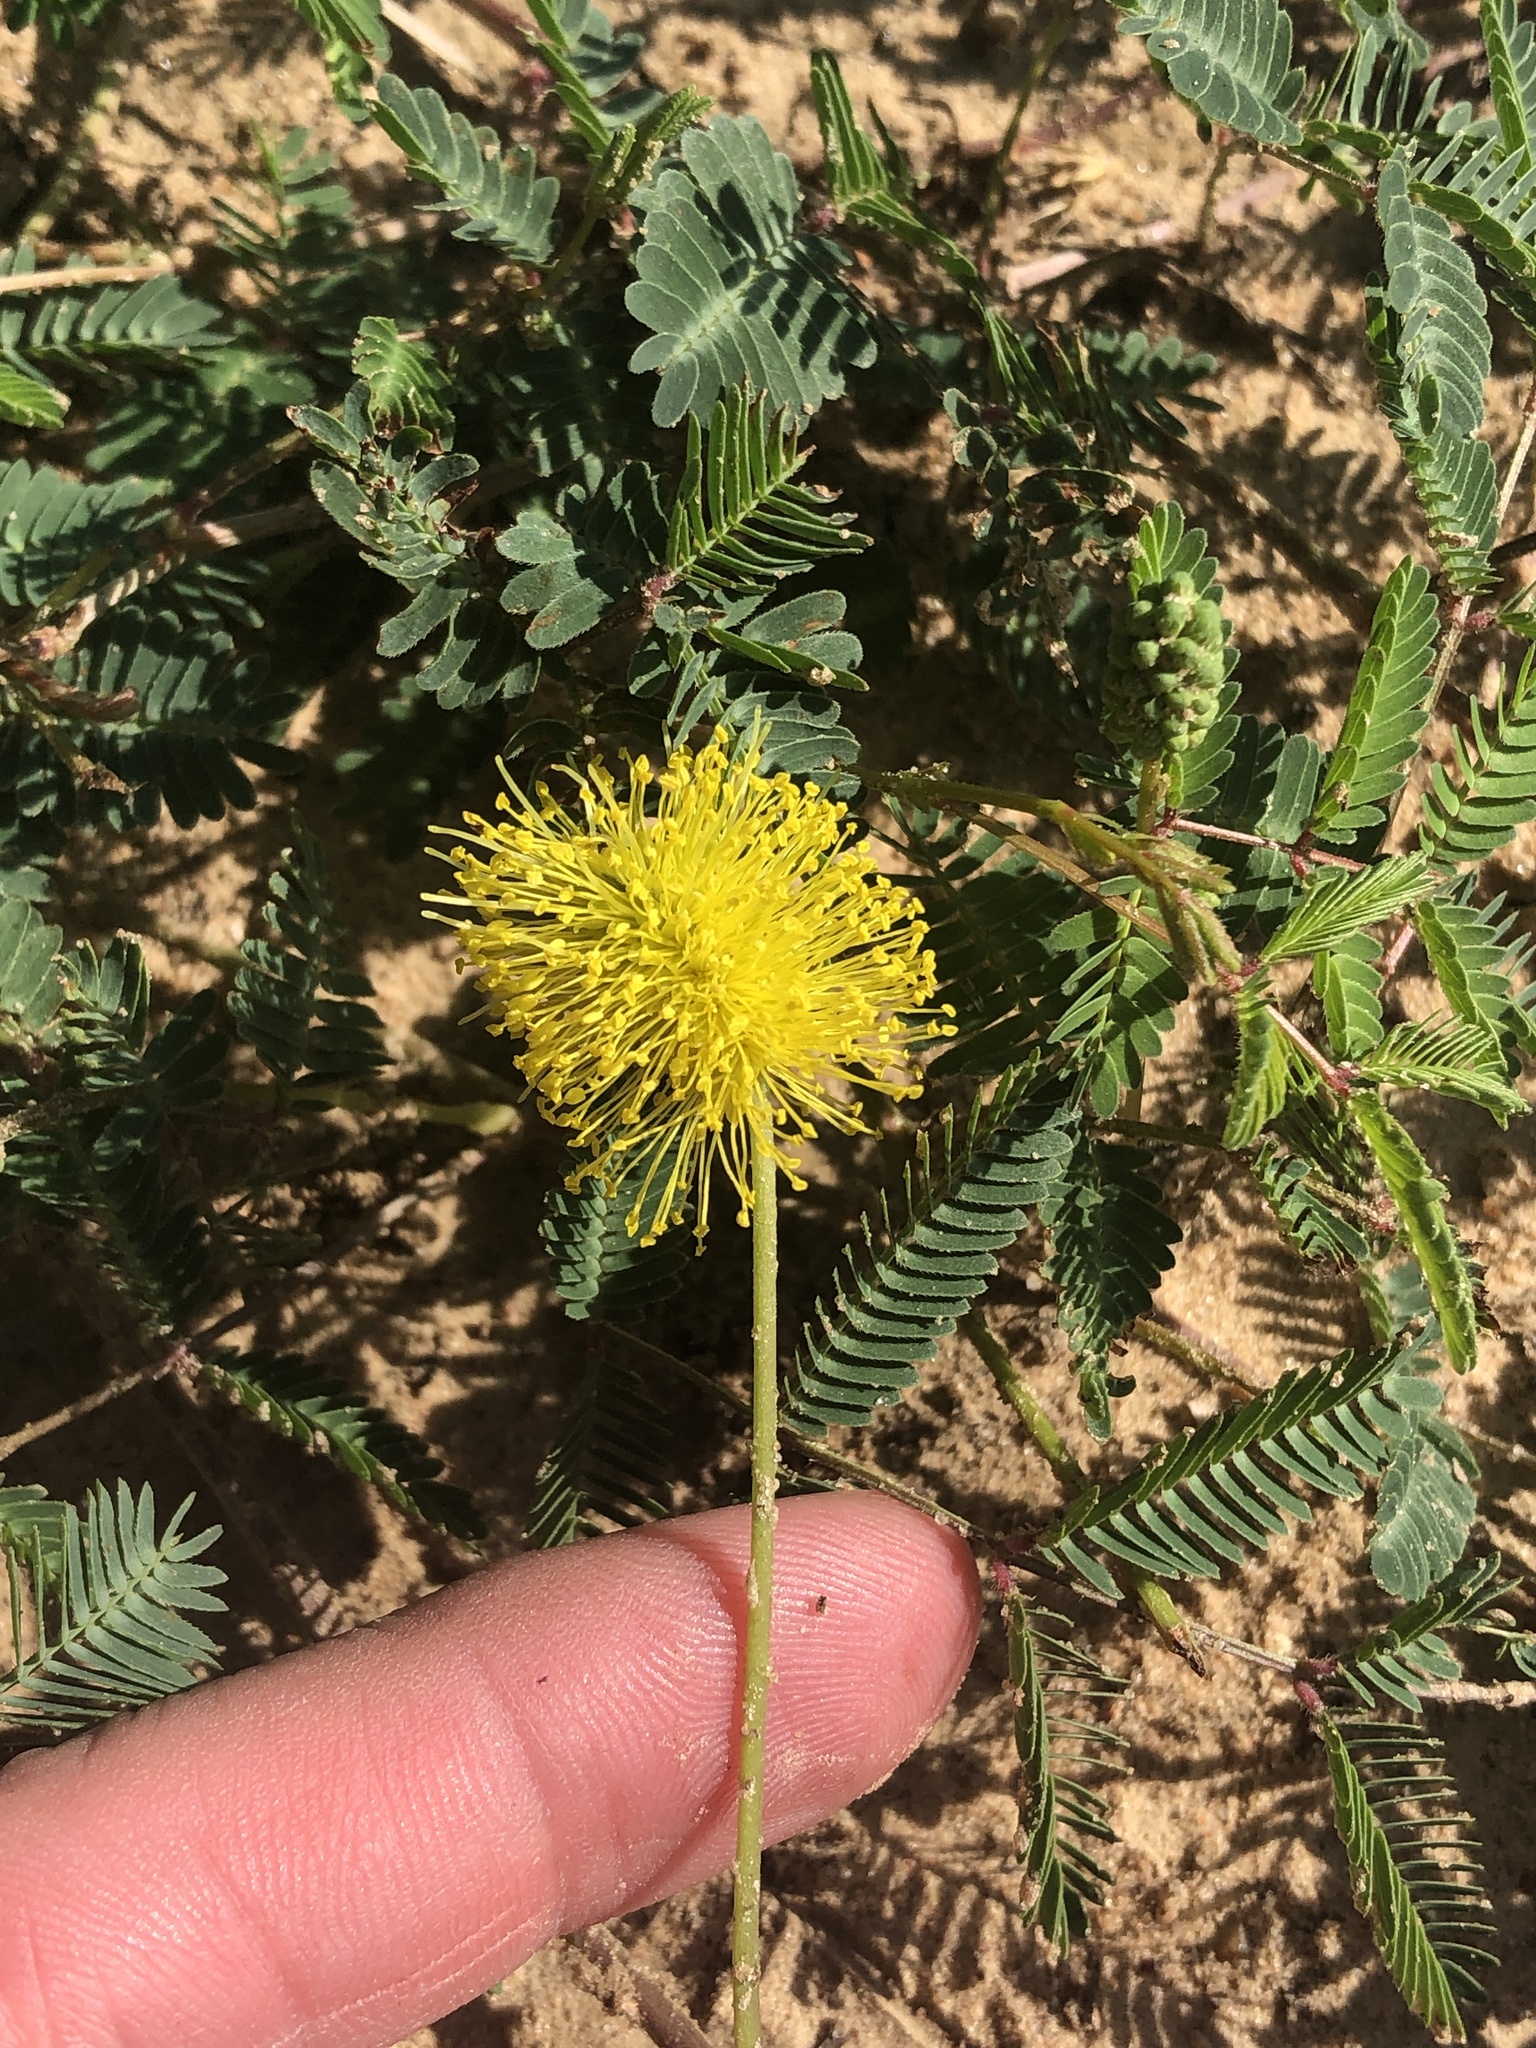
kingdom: Plantae
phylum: Tracheophyta
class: Magnoliopsida
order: Fabales
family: Fabaceae
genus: Neptunia
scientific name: Neptunia lutea
